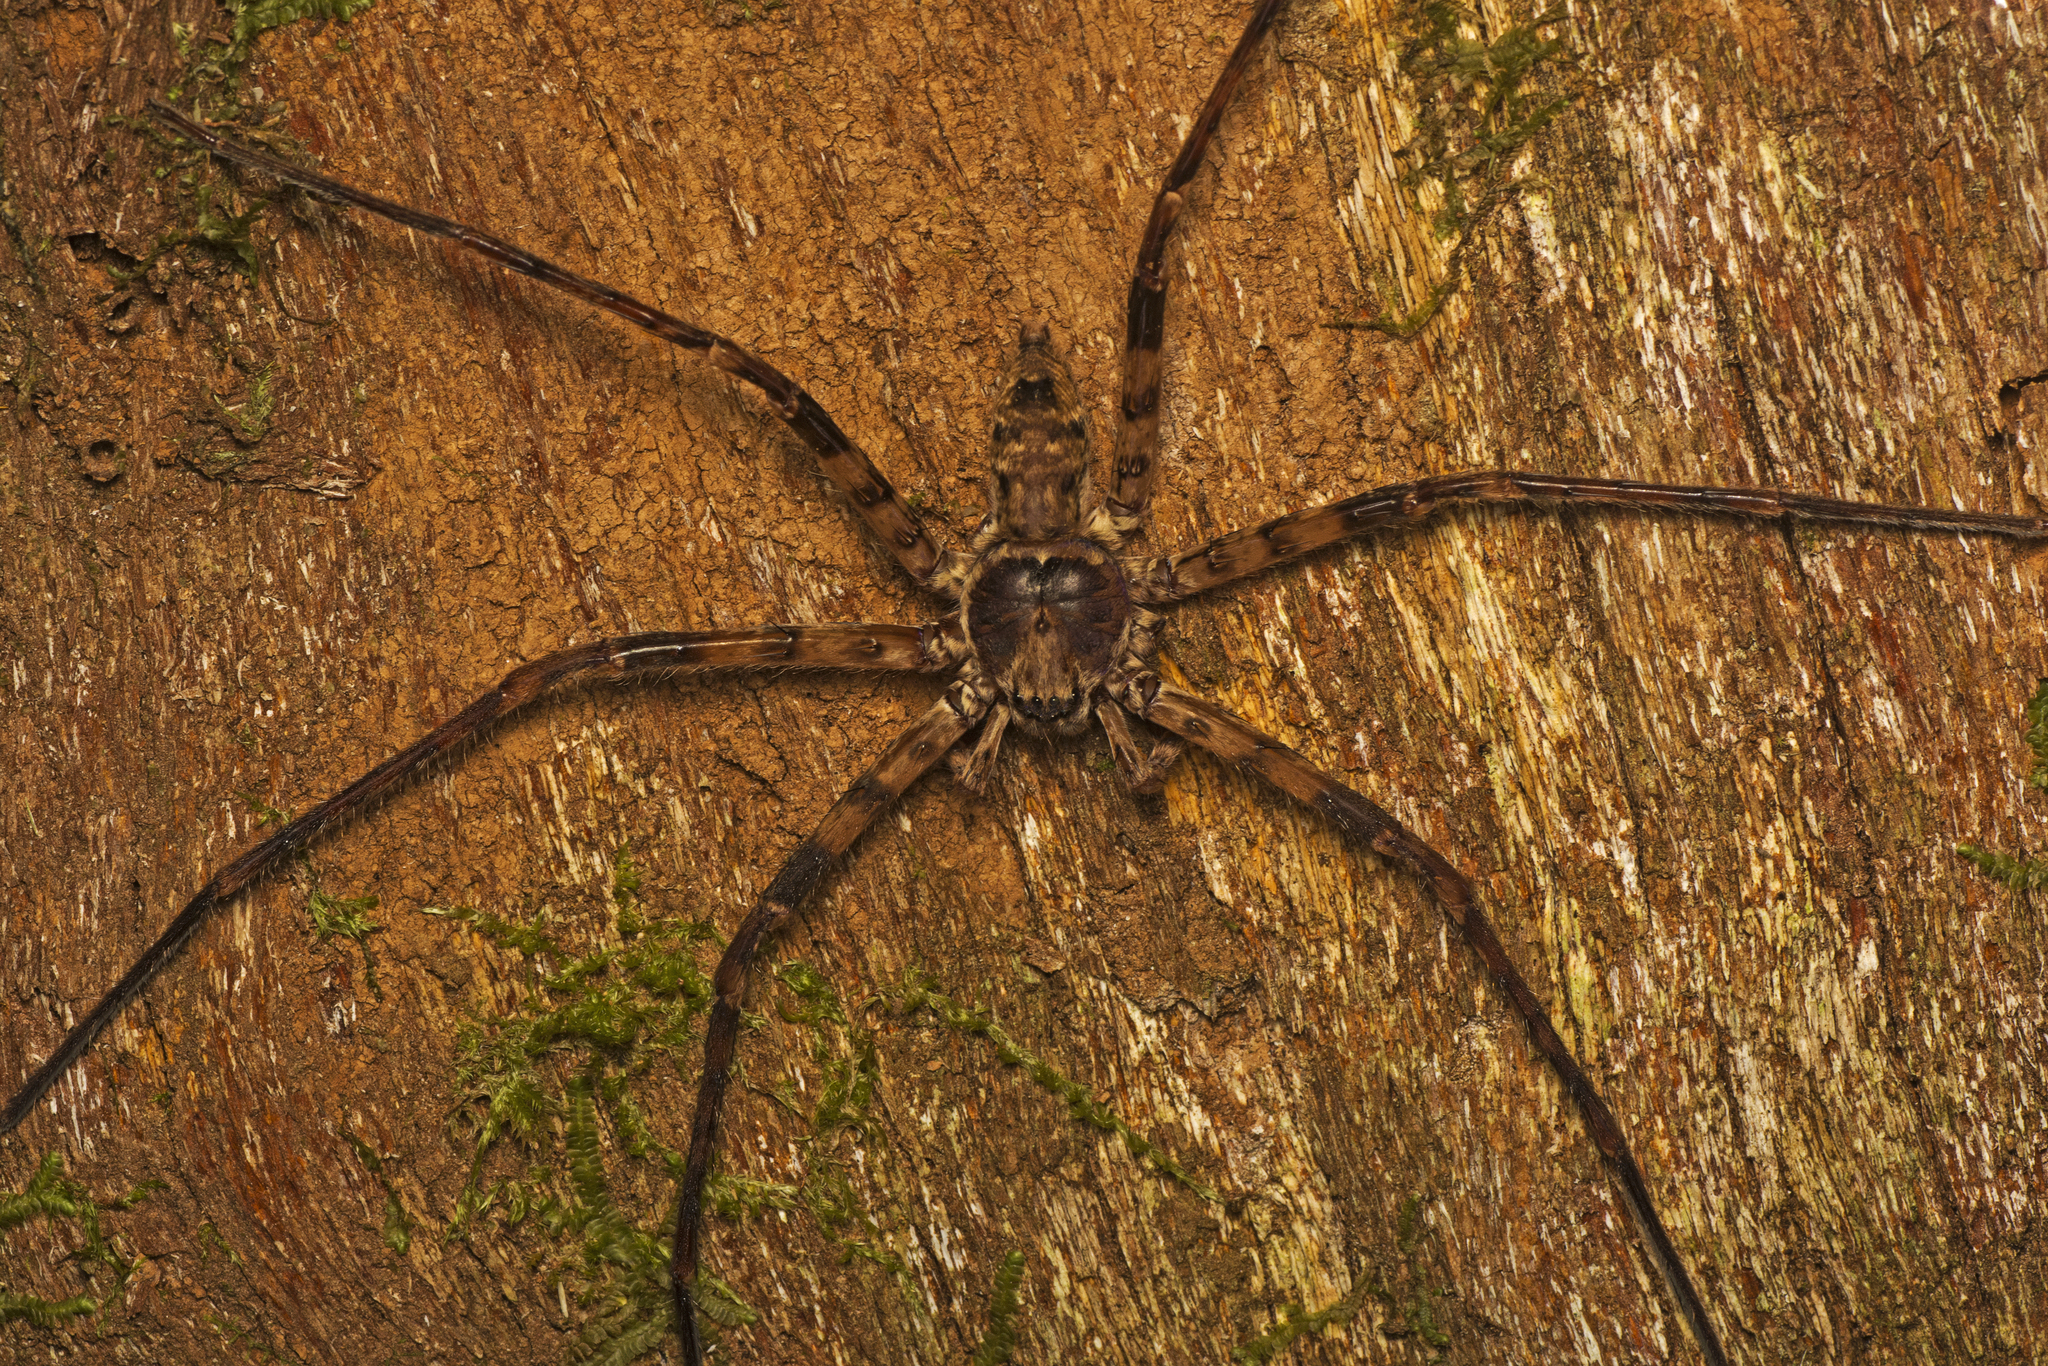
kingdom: Animalia
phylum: Arthropoda
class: Arachnida
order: Araneae
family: Sparassidae
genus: Heteropoda
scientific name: Heteropoda procera
